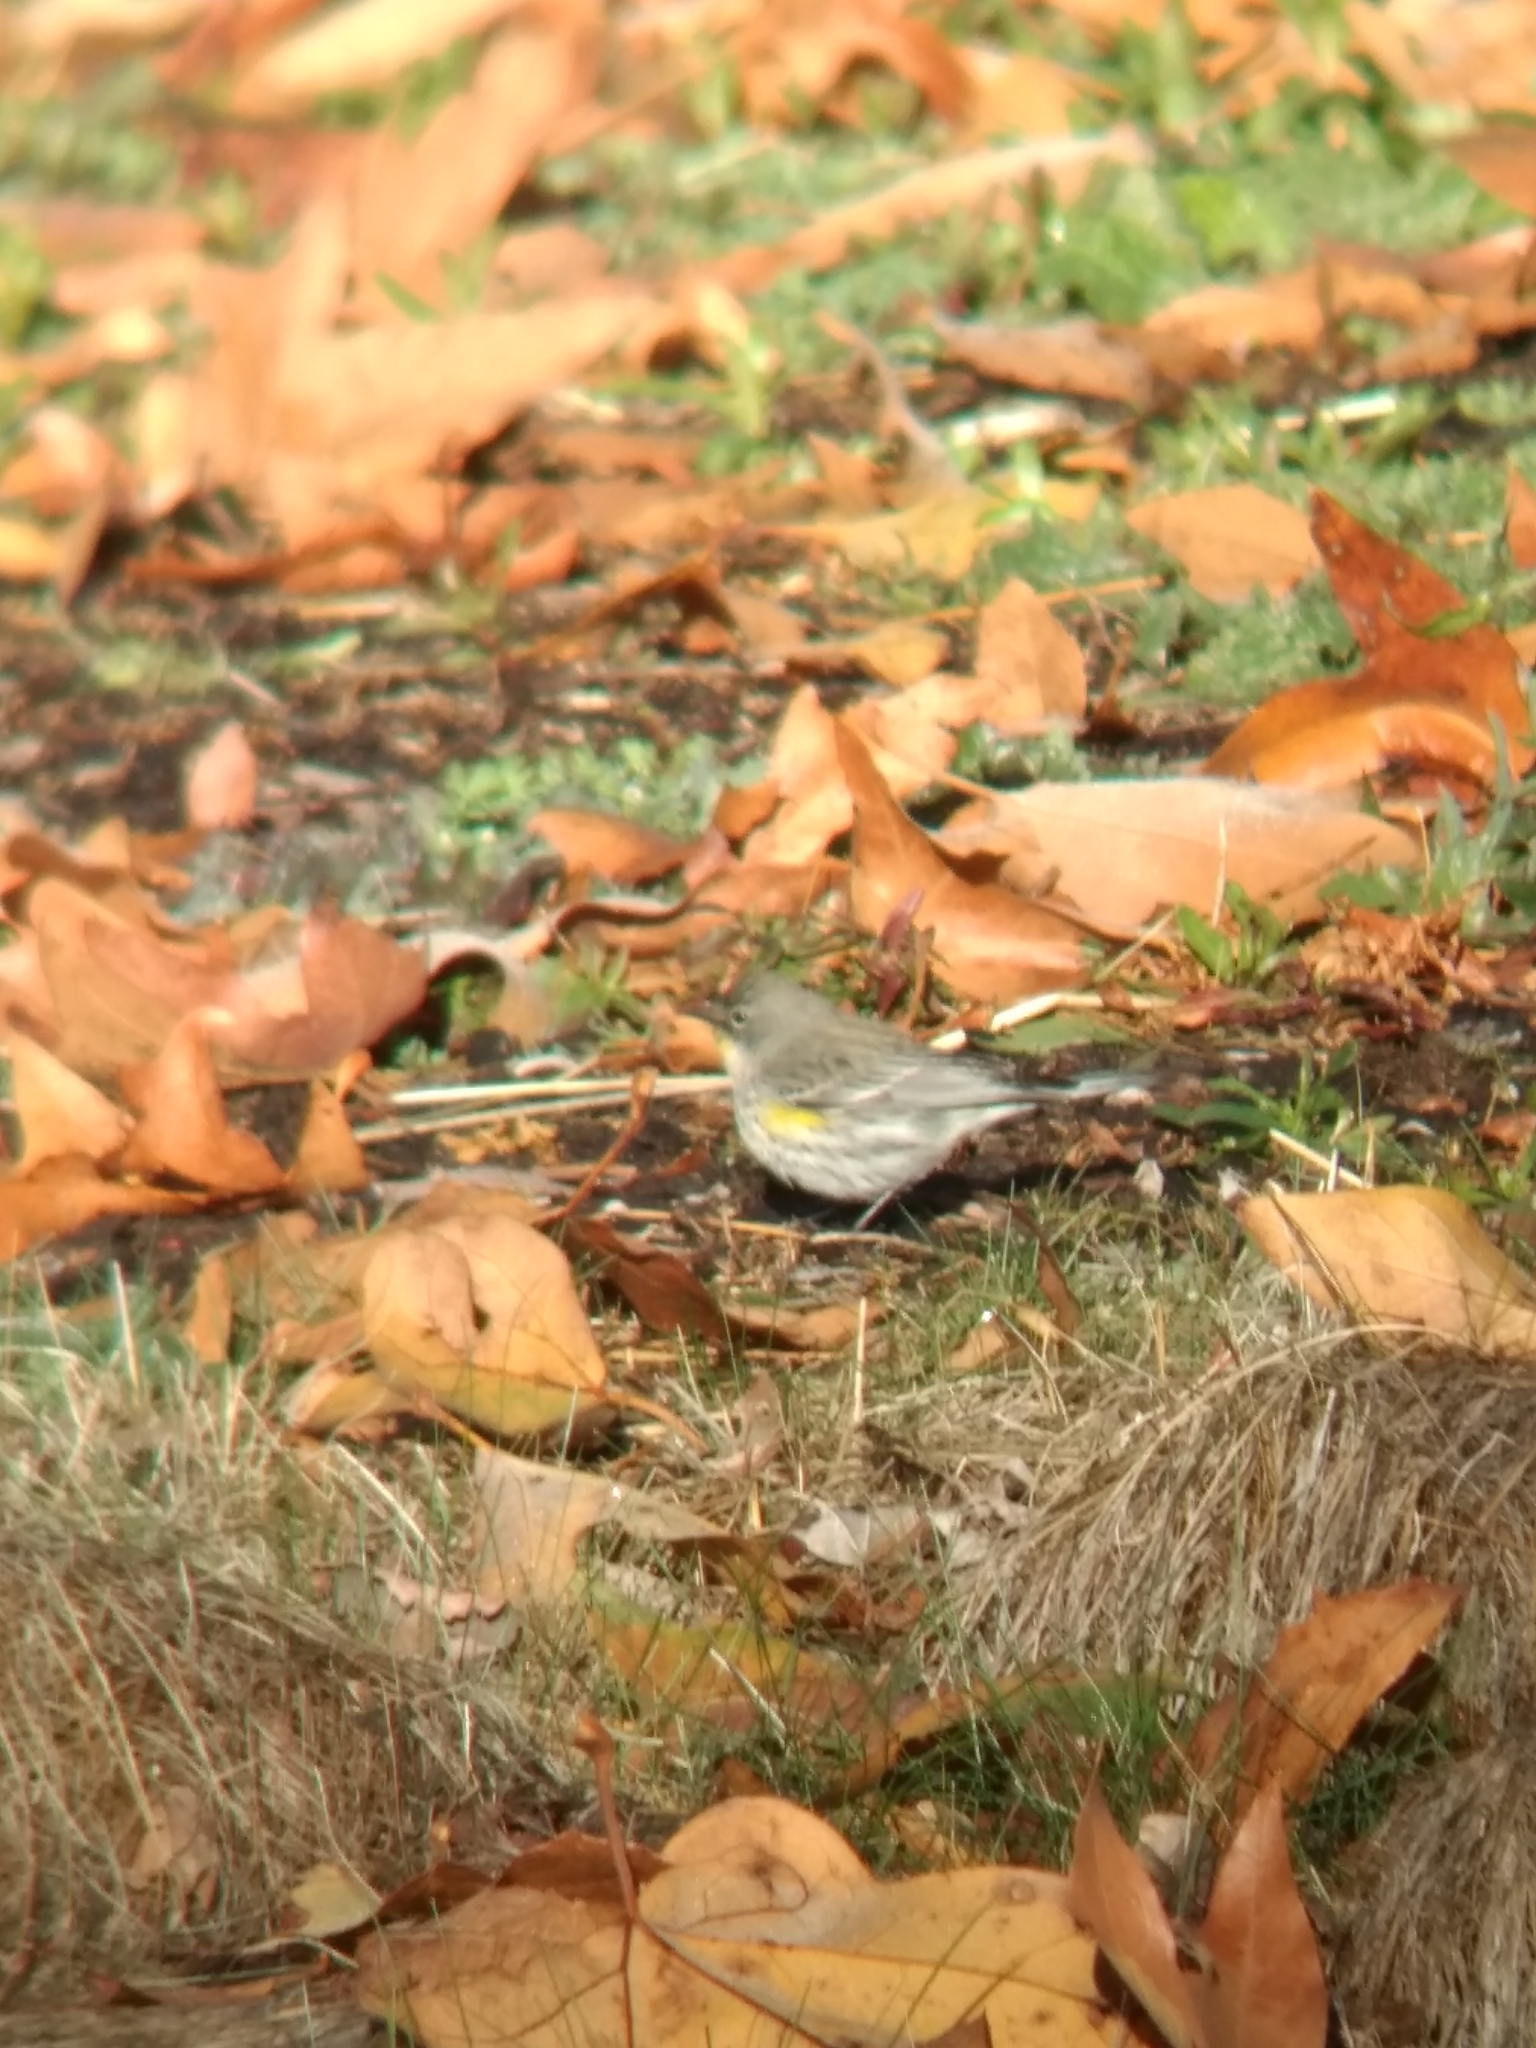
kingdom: Animalia
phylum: Chordata
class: Aves
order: Passeriformes
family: Parulidae
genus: Setophaga
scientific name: Setophaga coronata
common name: Myrtle warbler
